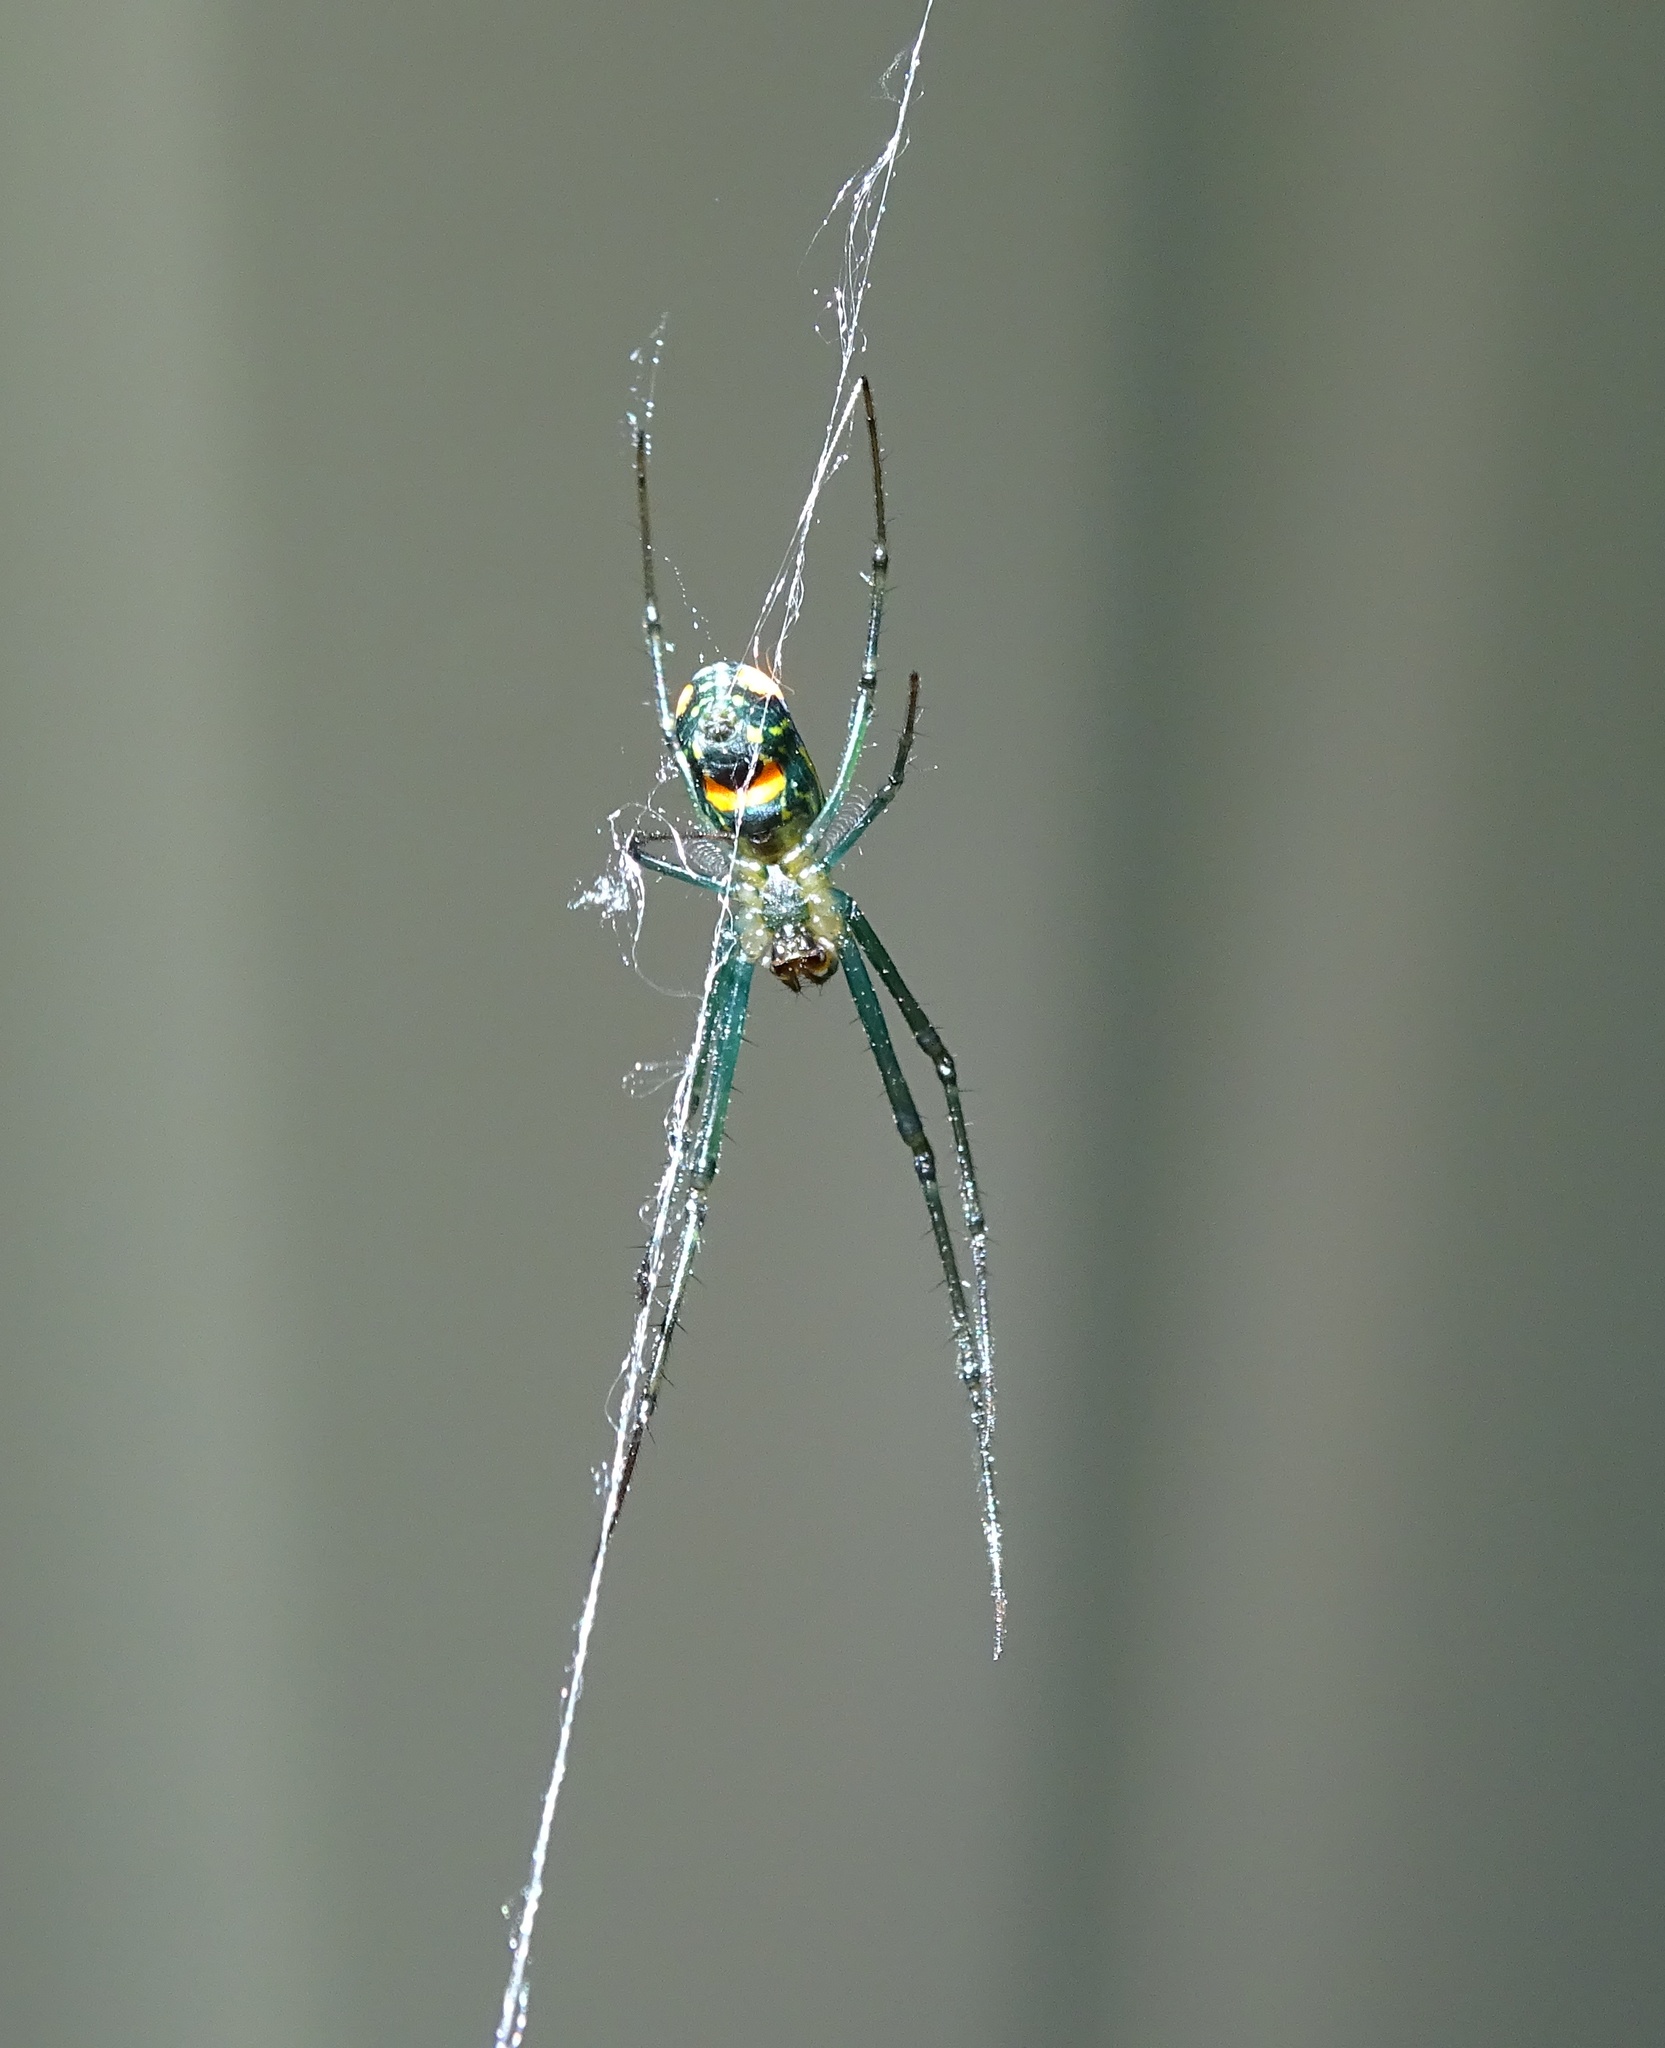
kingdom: Animalia
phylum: Arthropoda
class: Arachnida
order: Araneae
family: Tetragnathidae
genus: Leucauge
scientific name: Leucauge argyrobapta
